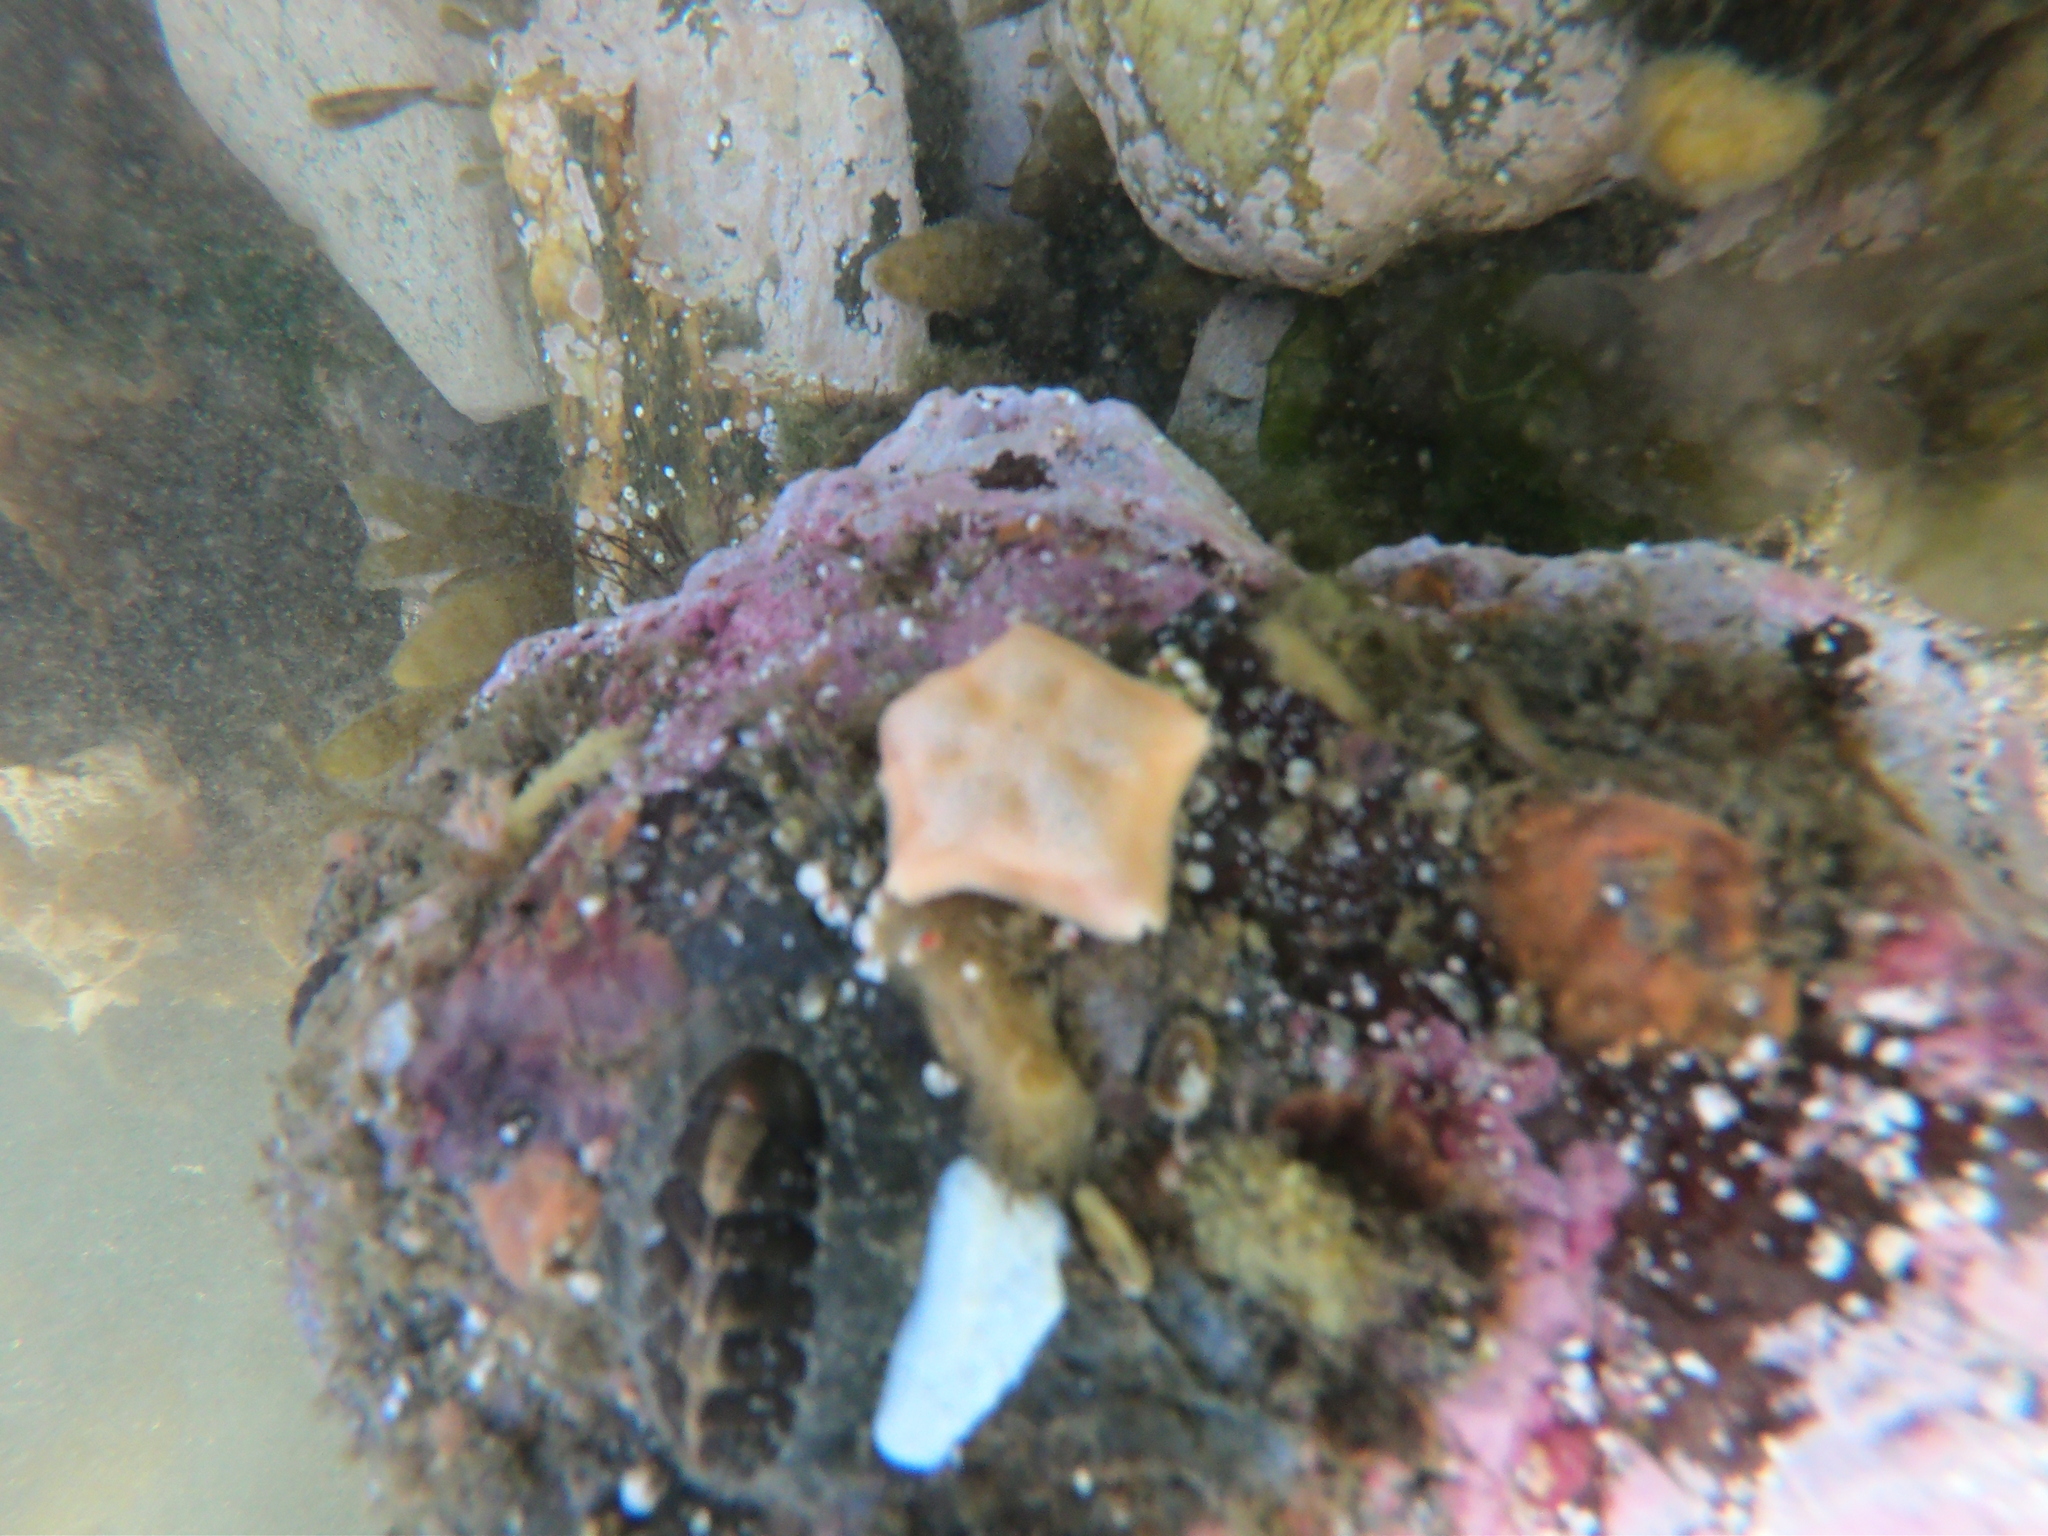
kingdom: Animalia
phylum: Echinodermata
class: Asteroidea
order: Valvatida
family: Asterinidae
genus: Asterina
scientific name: Asterina fimbriata
